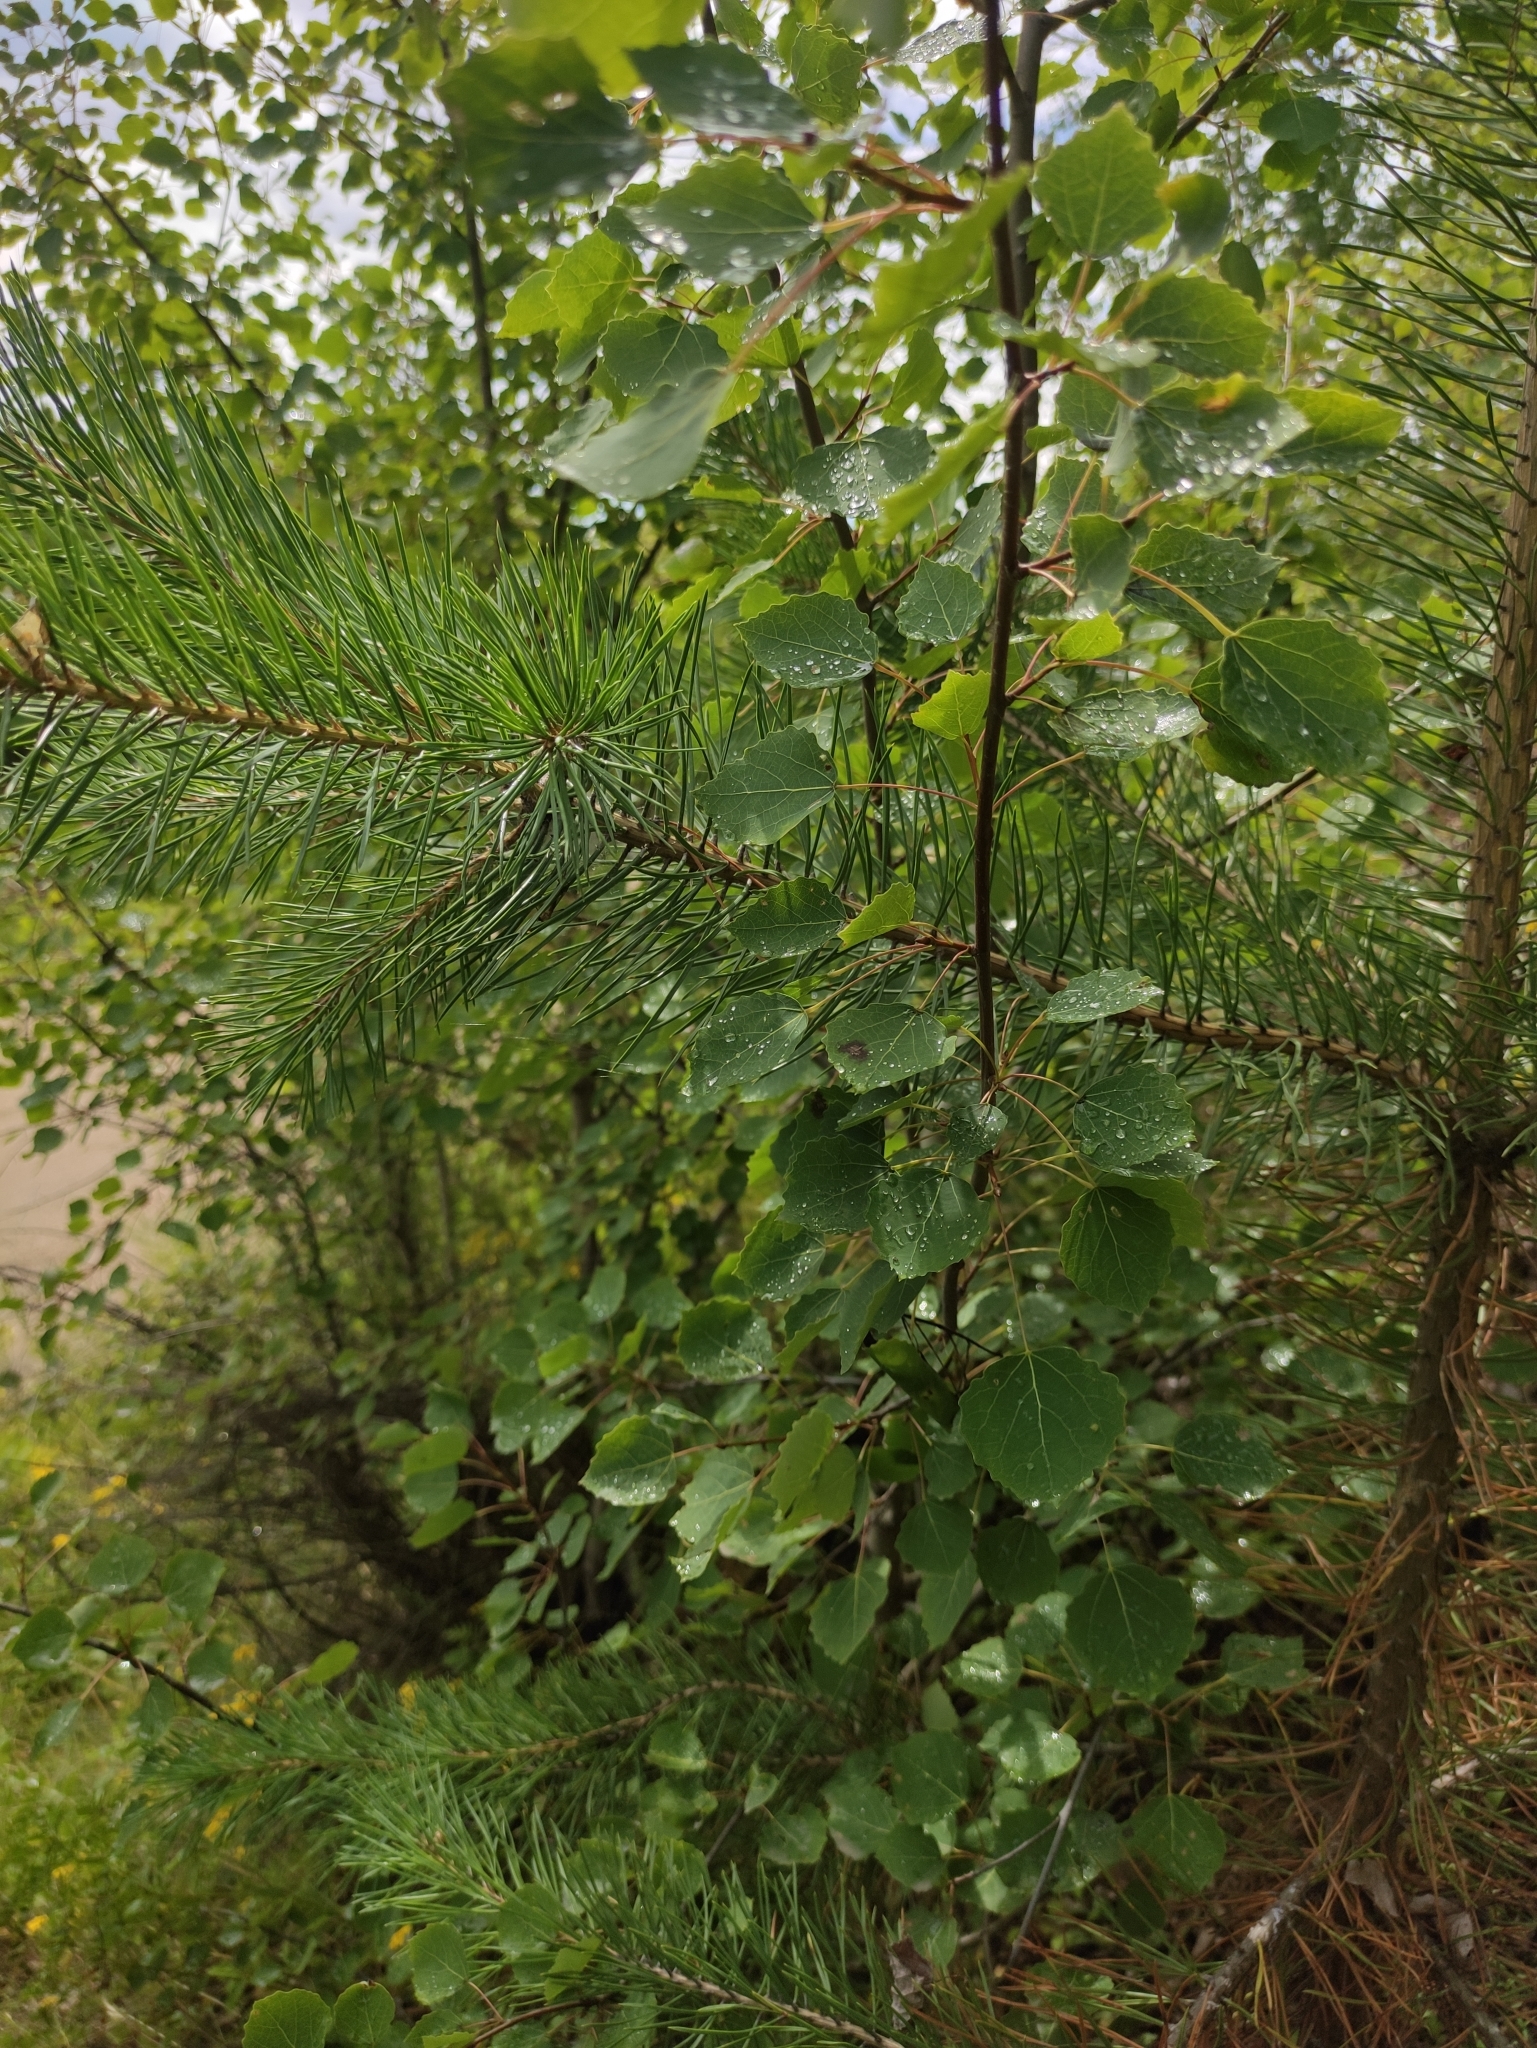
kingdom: Plantae
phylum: Tracheophyta
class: Magnoliopsida
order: Malpighiales
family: Salicaceae
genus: Populus
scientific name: Populus tremula
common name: European aspen
